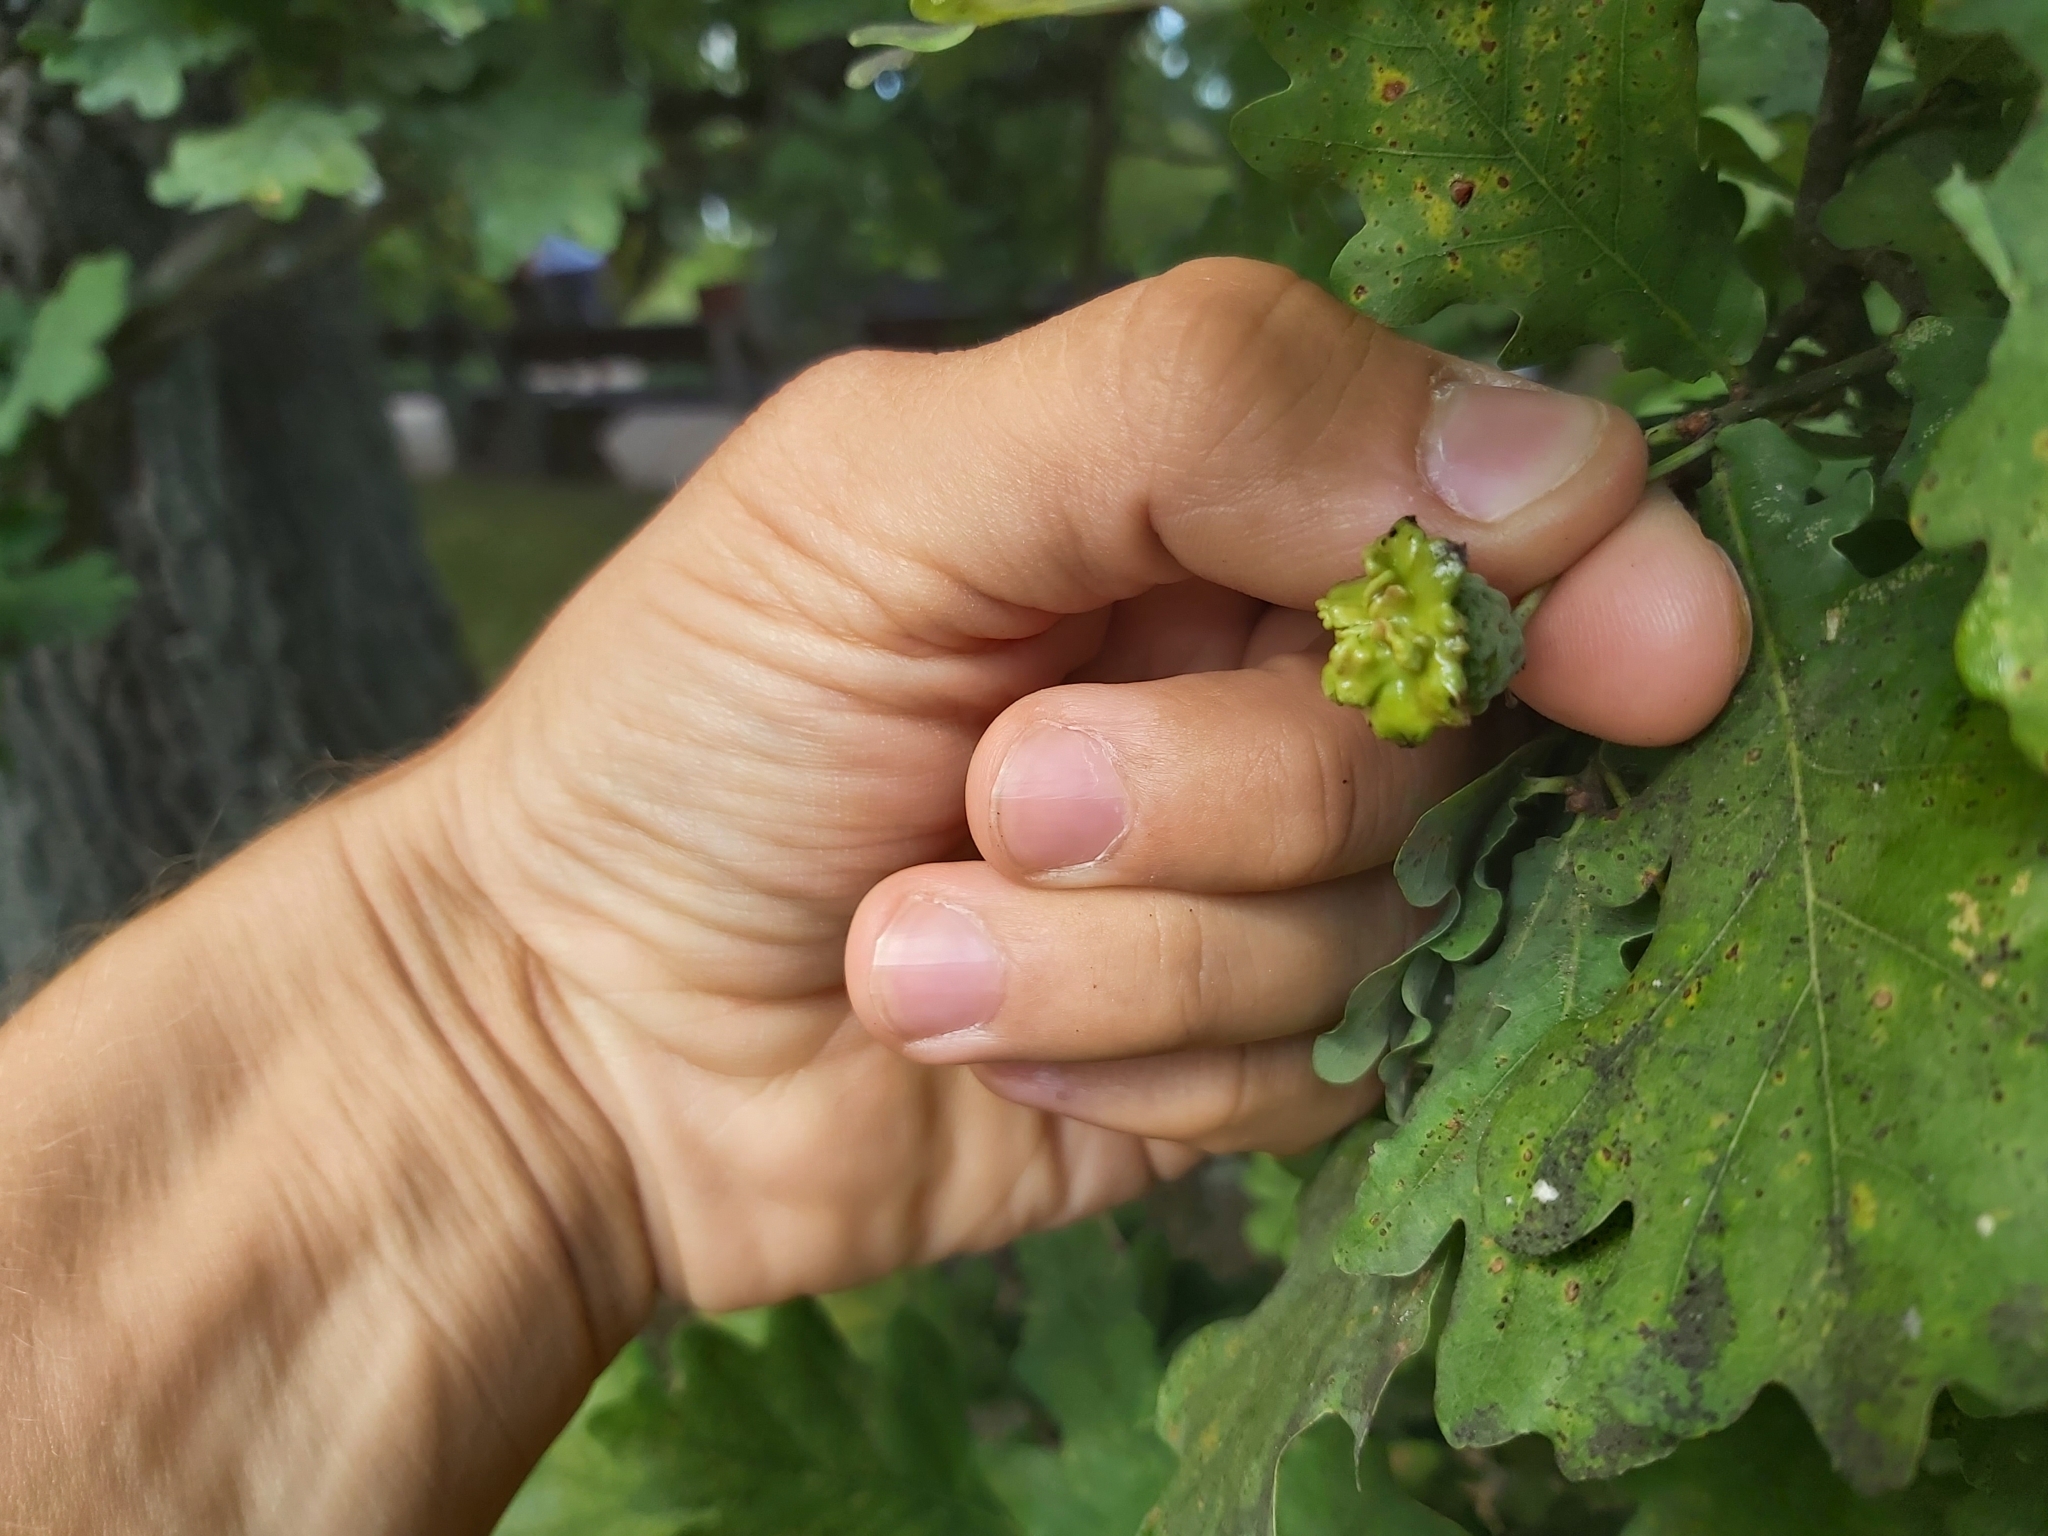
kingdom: Animalia
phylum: Arthropoda
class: Insecta
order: Hymenoptera
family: Cynipidae
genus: Andricus
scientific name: Andricus quercuscalicis
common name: Knopper gall
